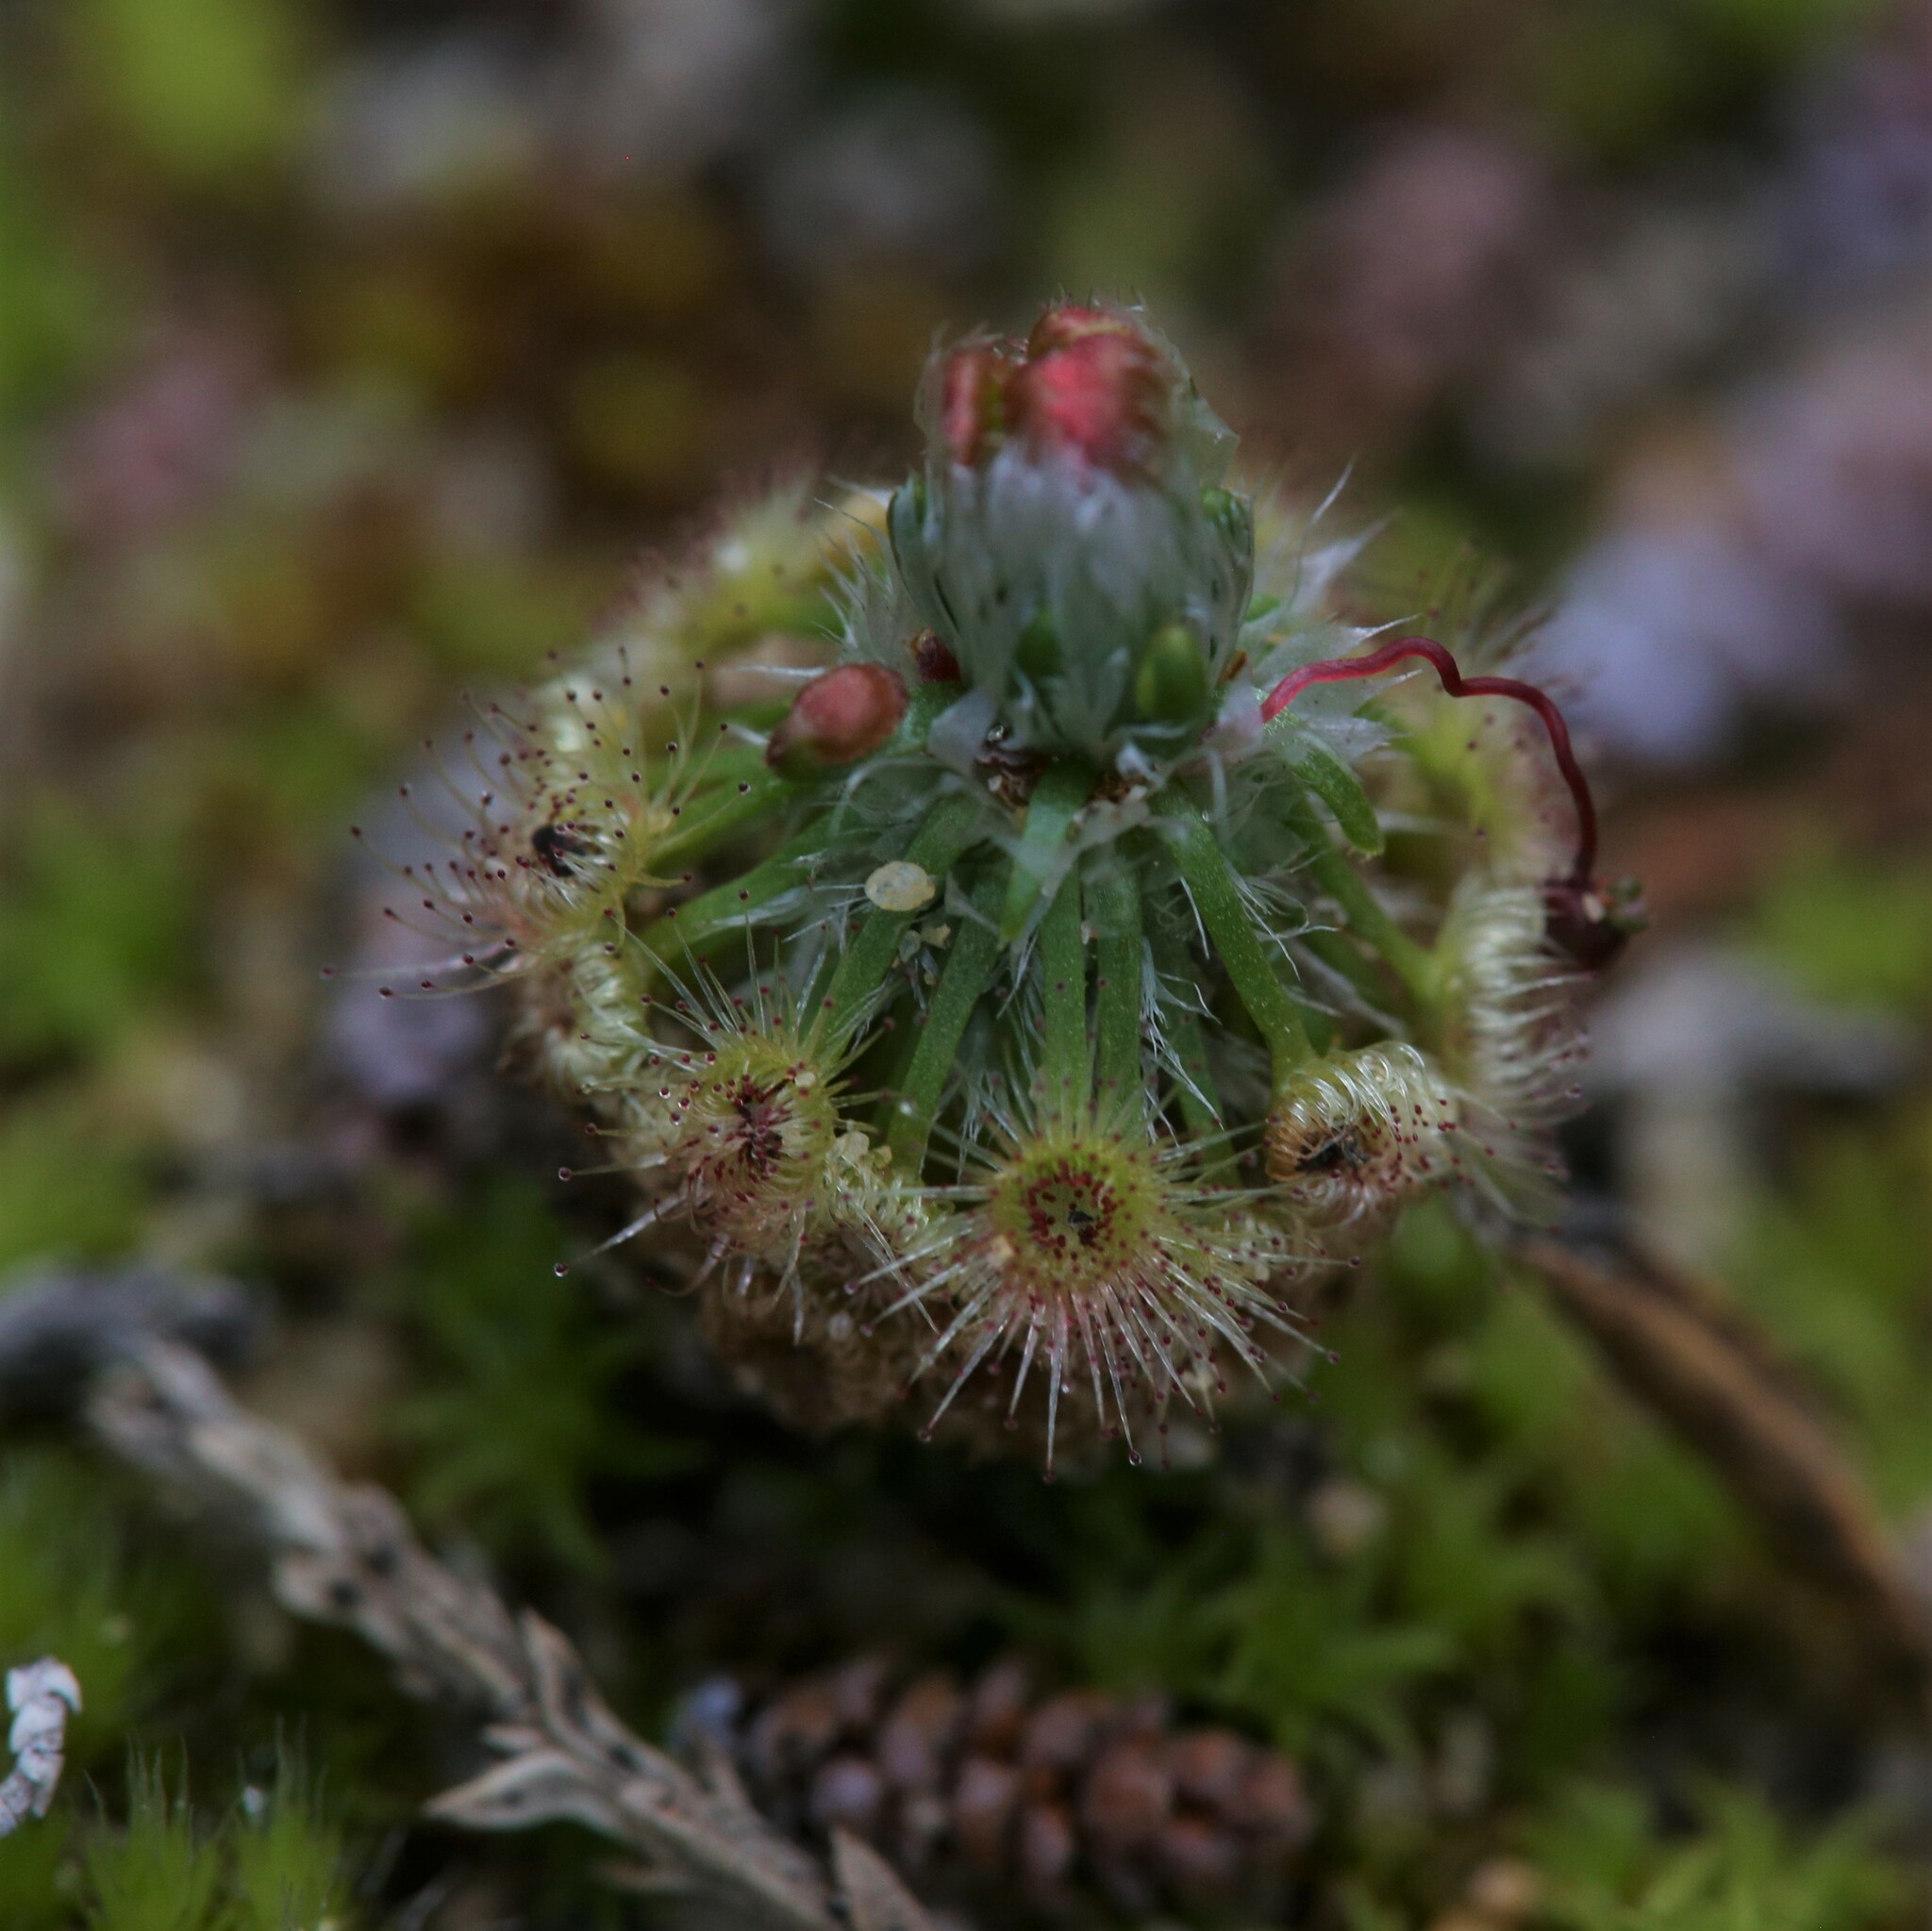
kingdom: Plantae
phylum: Tracheophyta
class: Magnoliopsida
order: Caryophyllales
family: Droseraceae
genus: Drosera
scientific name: Drosera citrina
